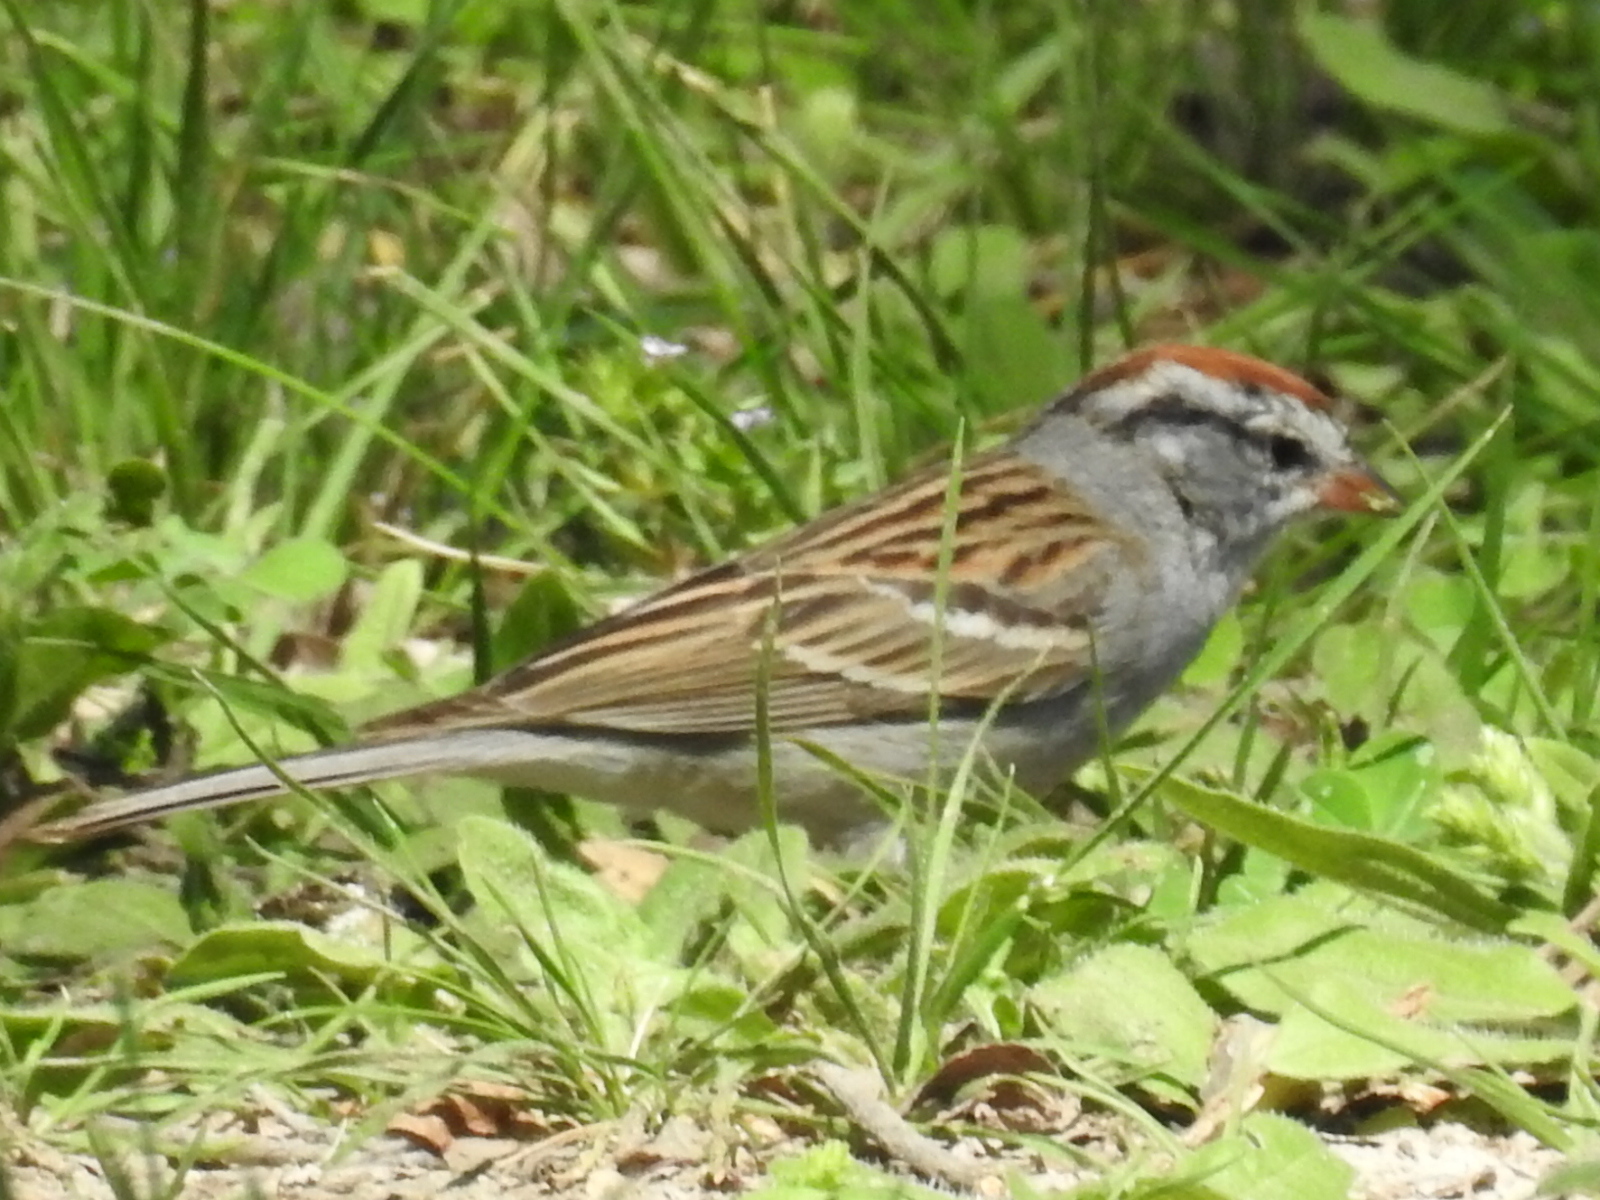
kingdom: Animalia
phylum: Chordata
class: Aves
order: Passeriformes
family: Passerellidae
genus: Spizella
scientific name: Spizella passerina
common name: Chipping sparrow
